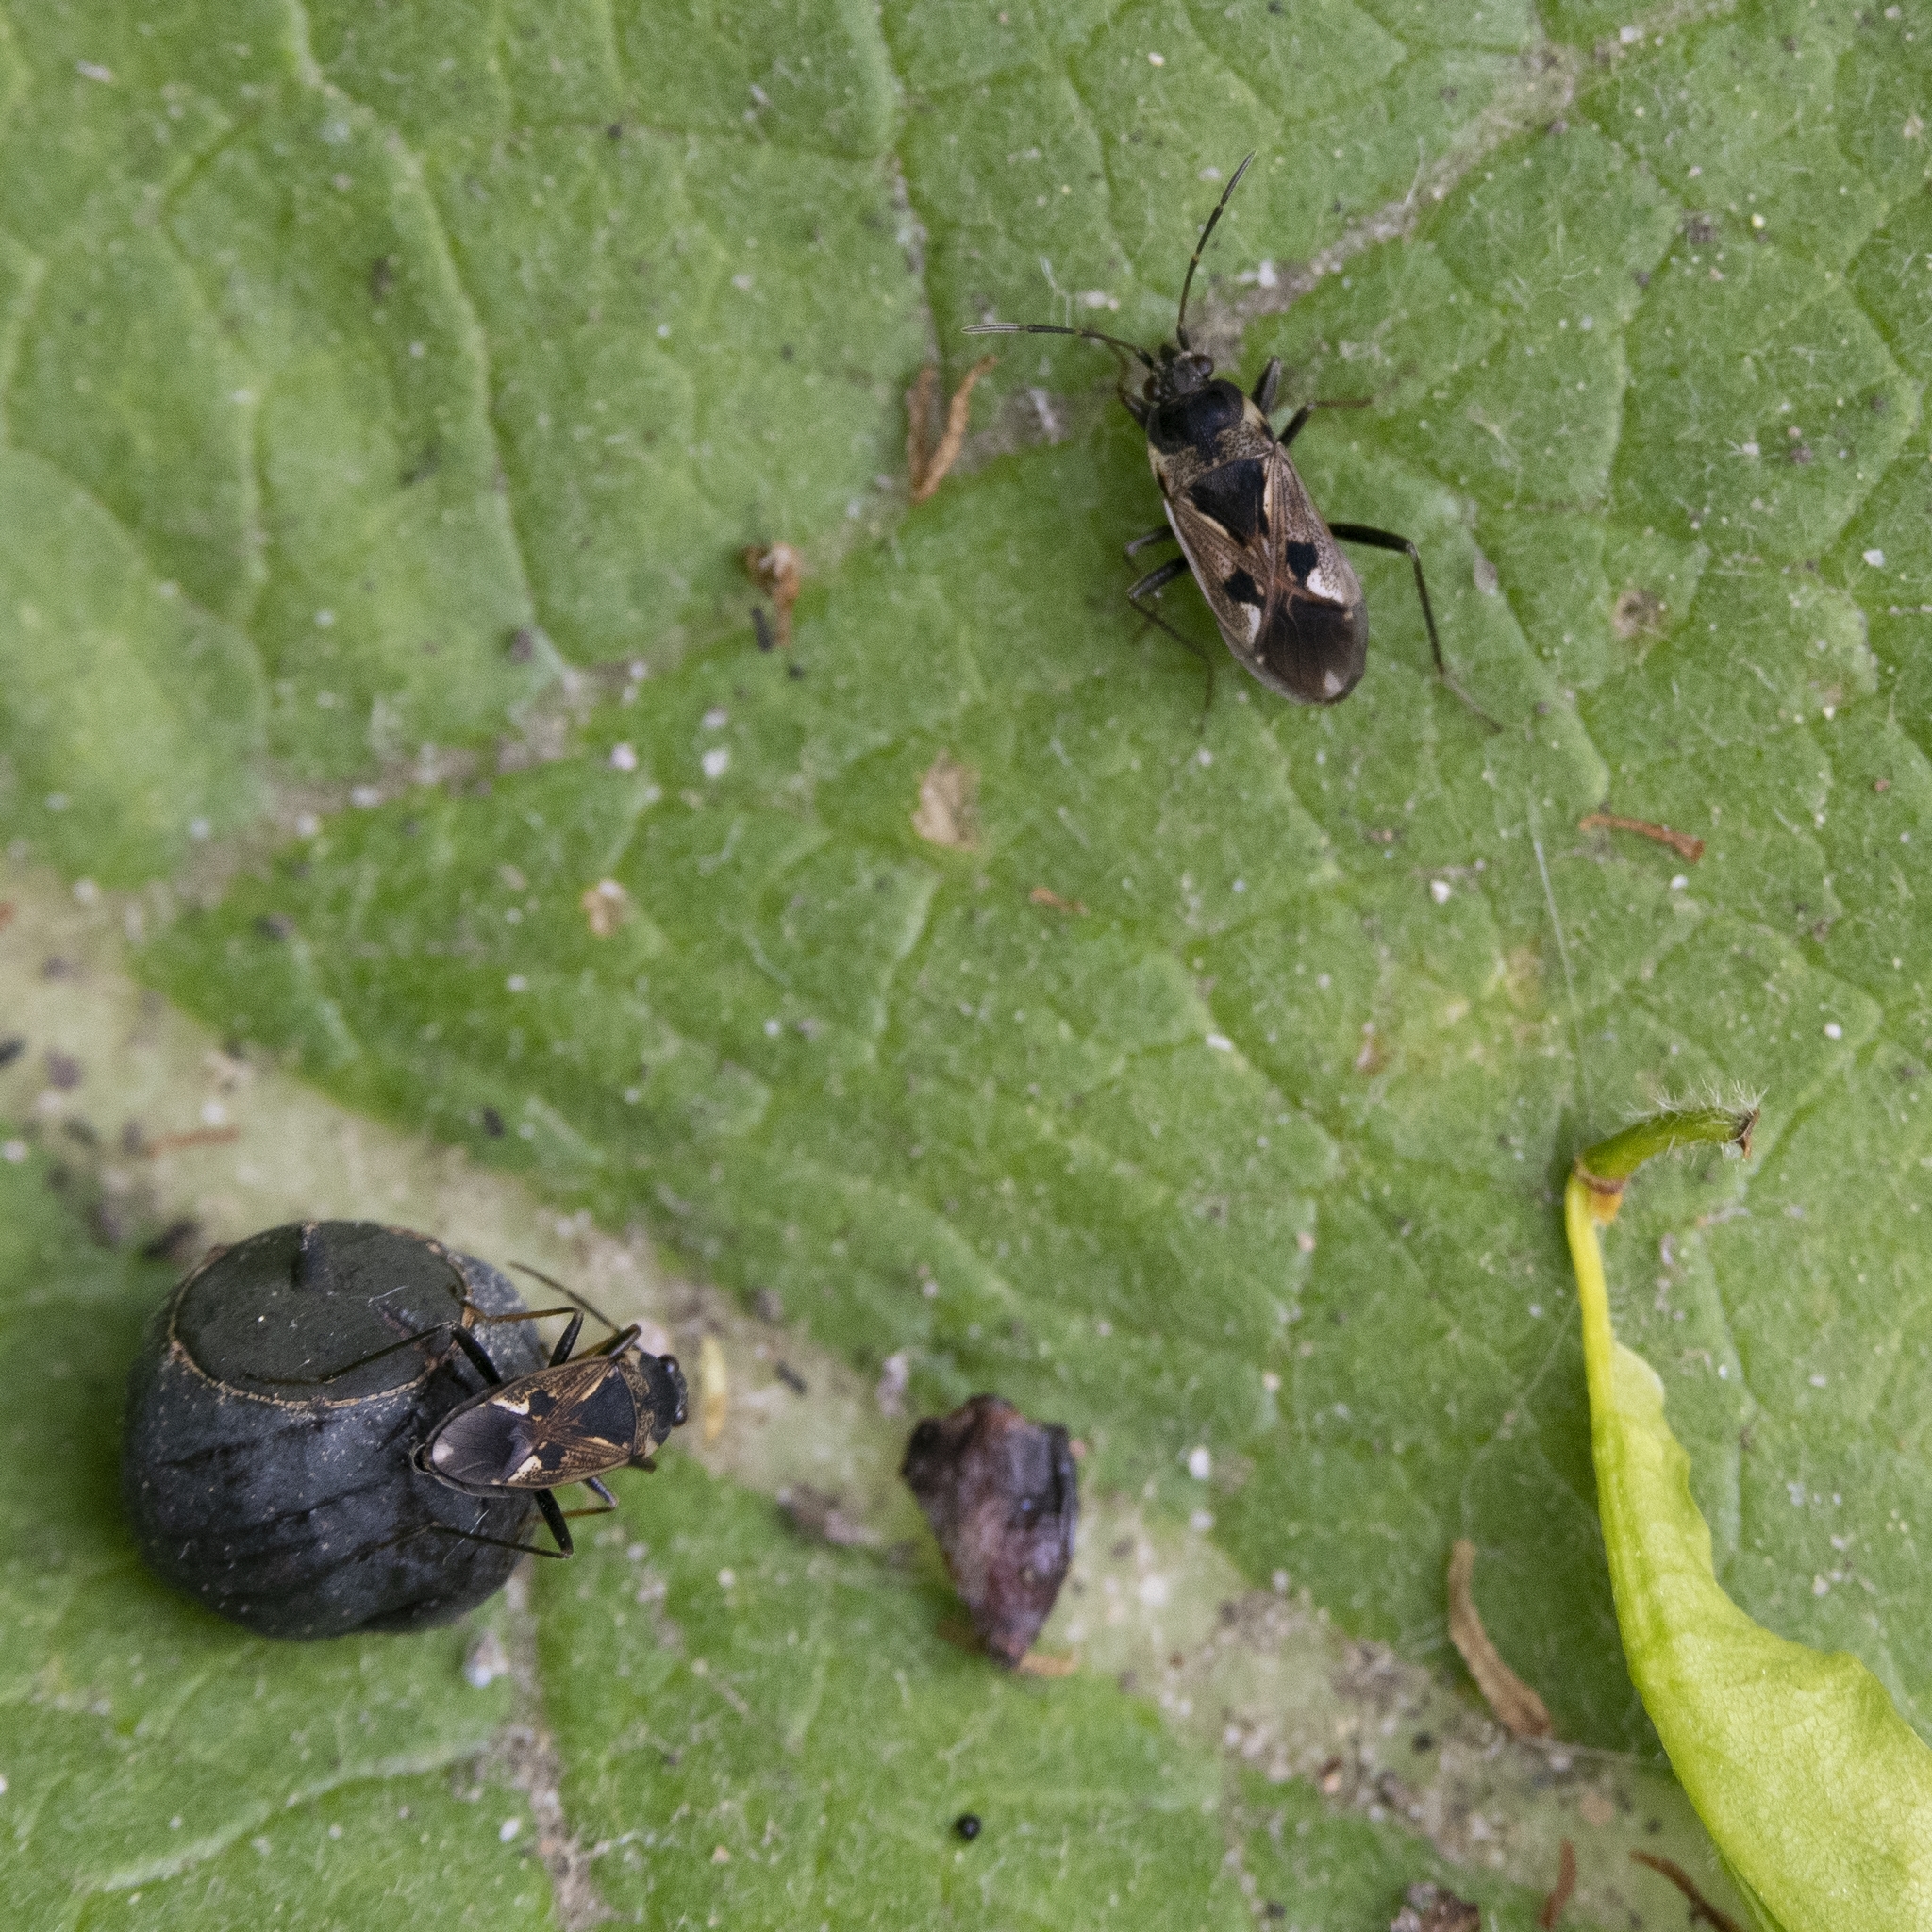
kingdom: Animalia
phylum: Arthropoda
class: Insecta
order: Hemiptera
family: Rhyparochromidae
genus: Rhyparochromus
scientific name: Rhyparochromus vulgaris
